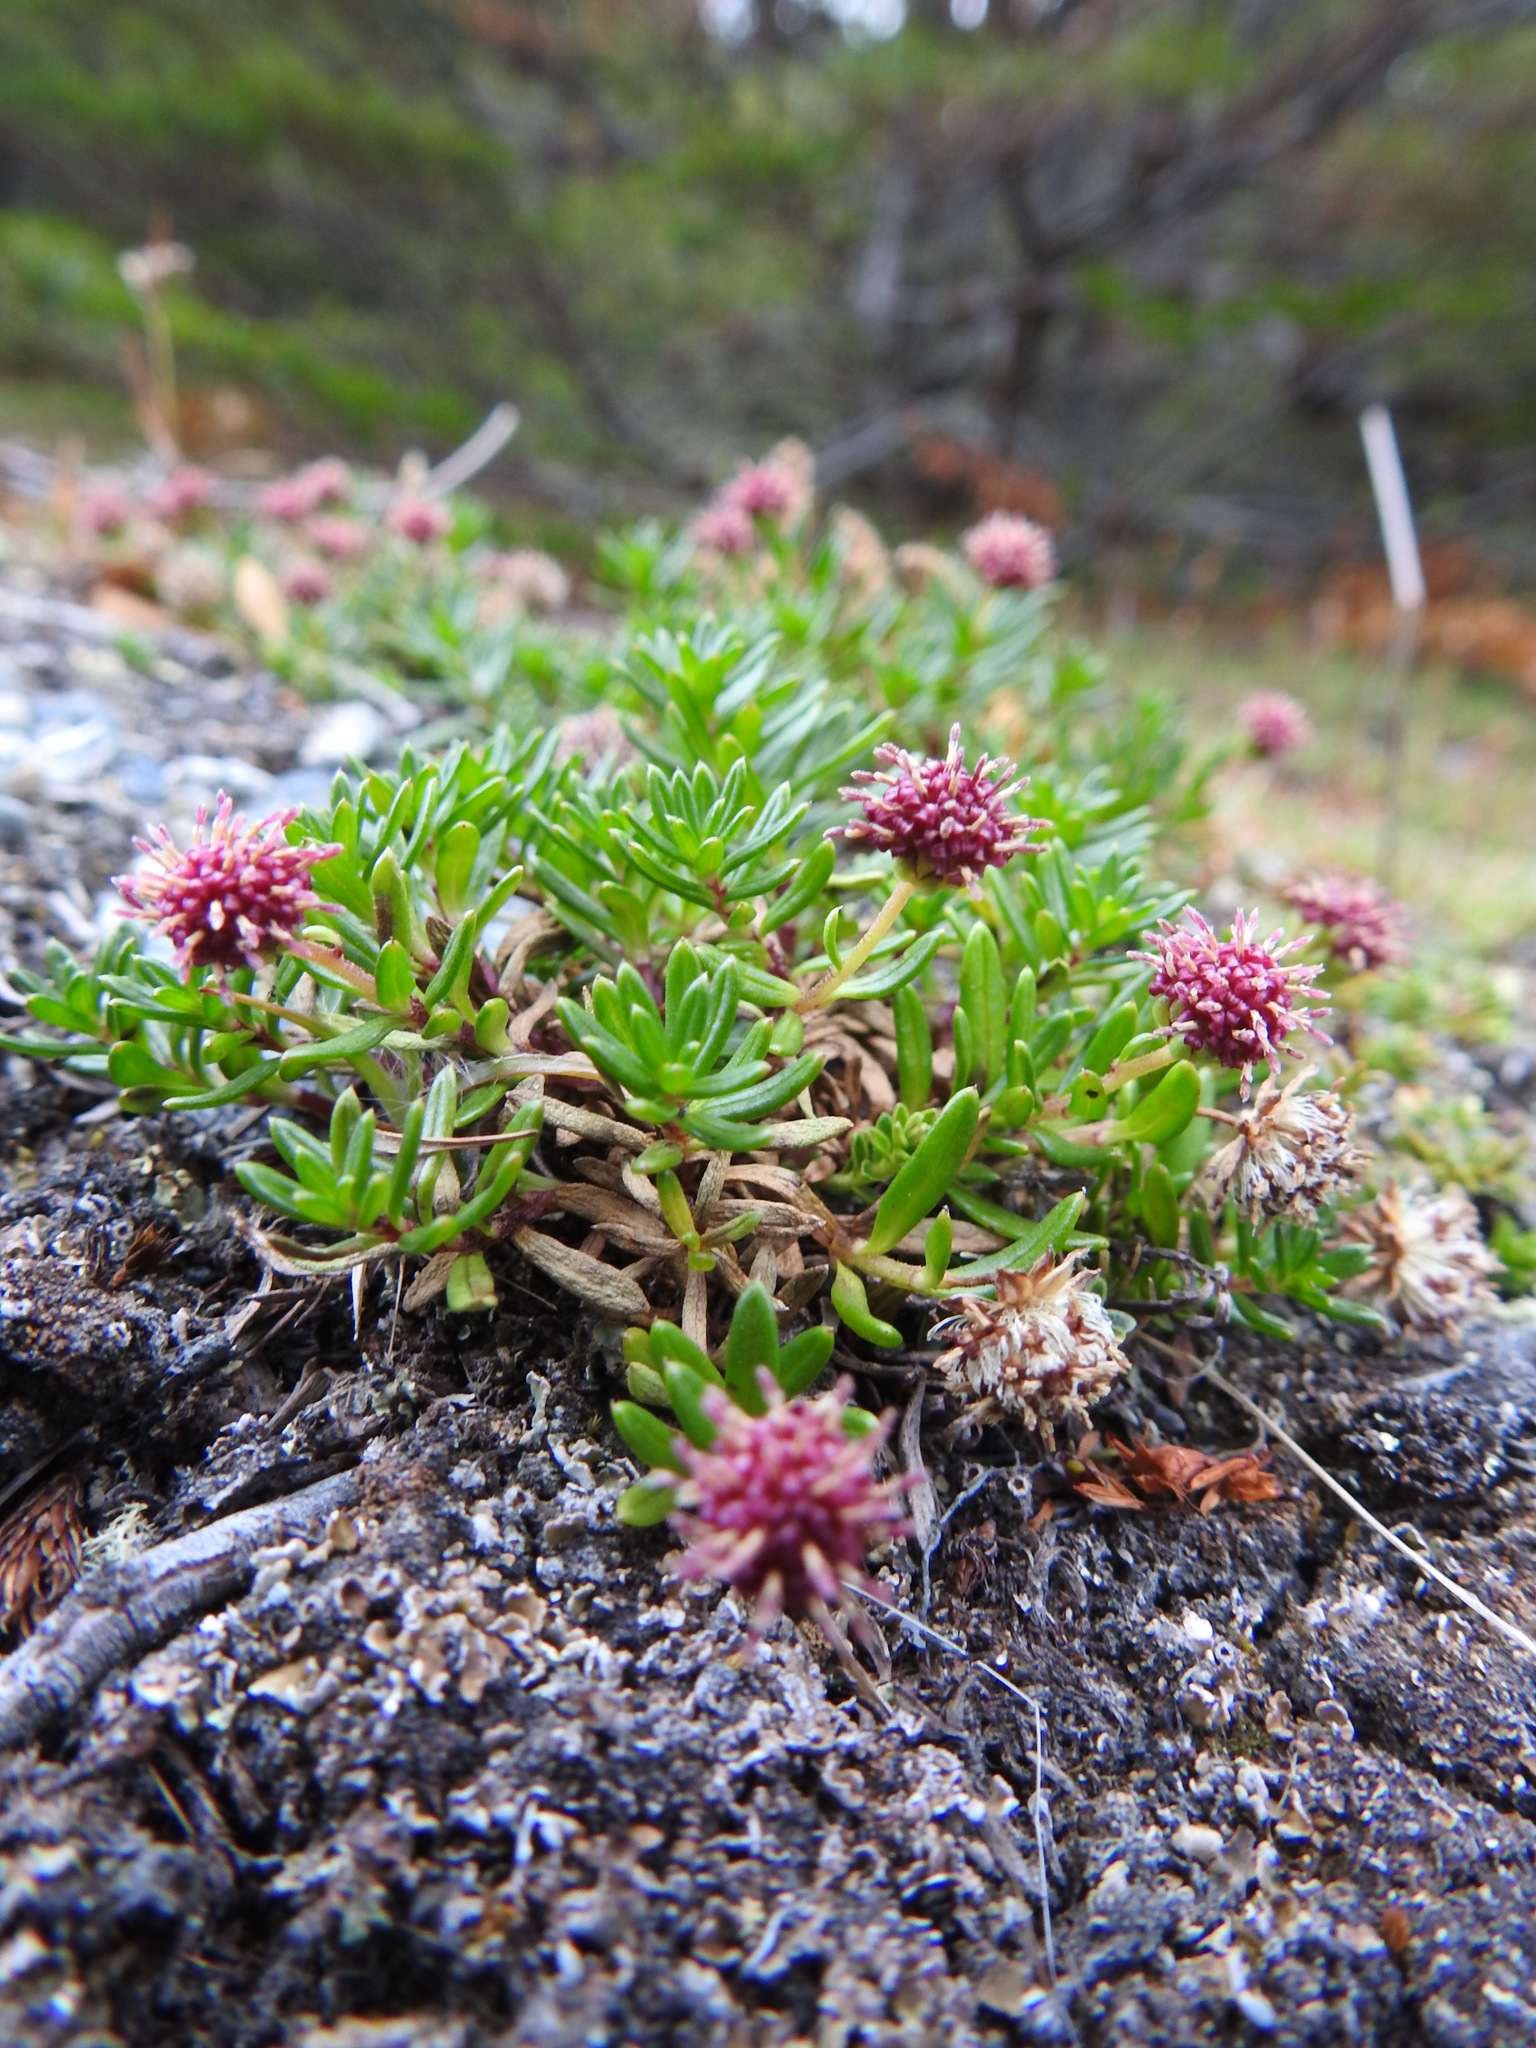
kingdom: Plantae
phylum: Tracheophyta
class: Magnoliopsida
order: Asterales
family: Asteraceae
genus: Baccharis
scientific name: Baccharis nivalis
